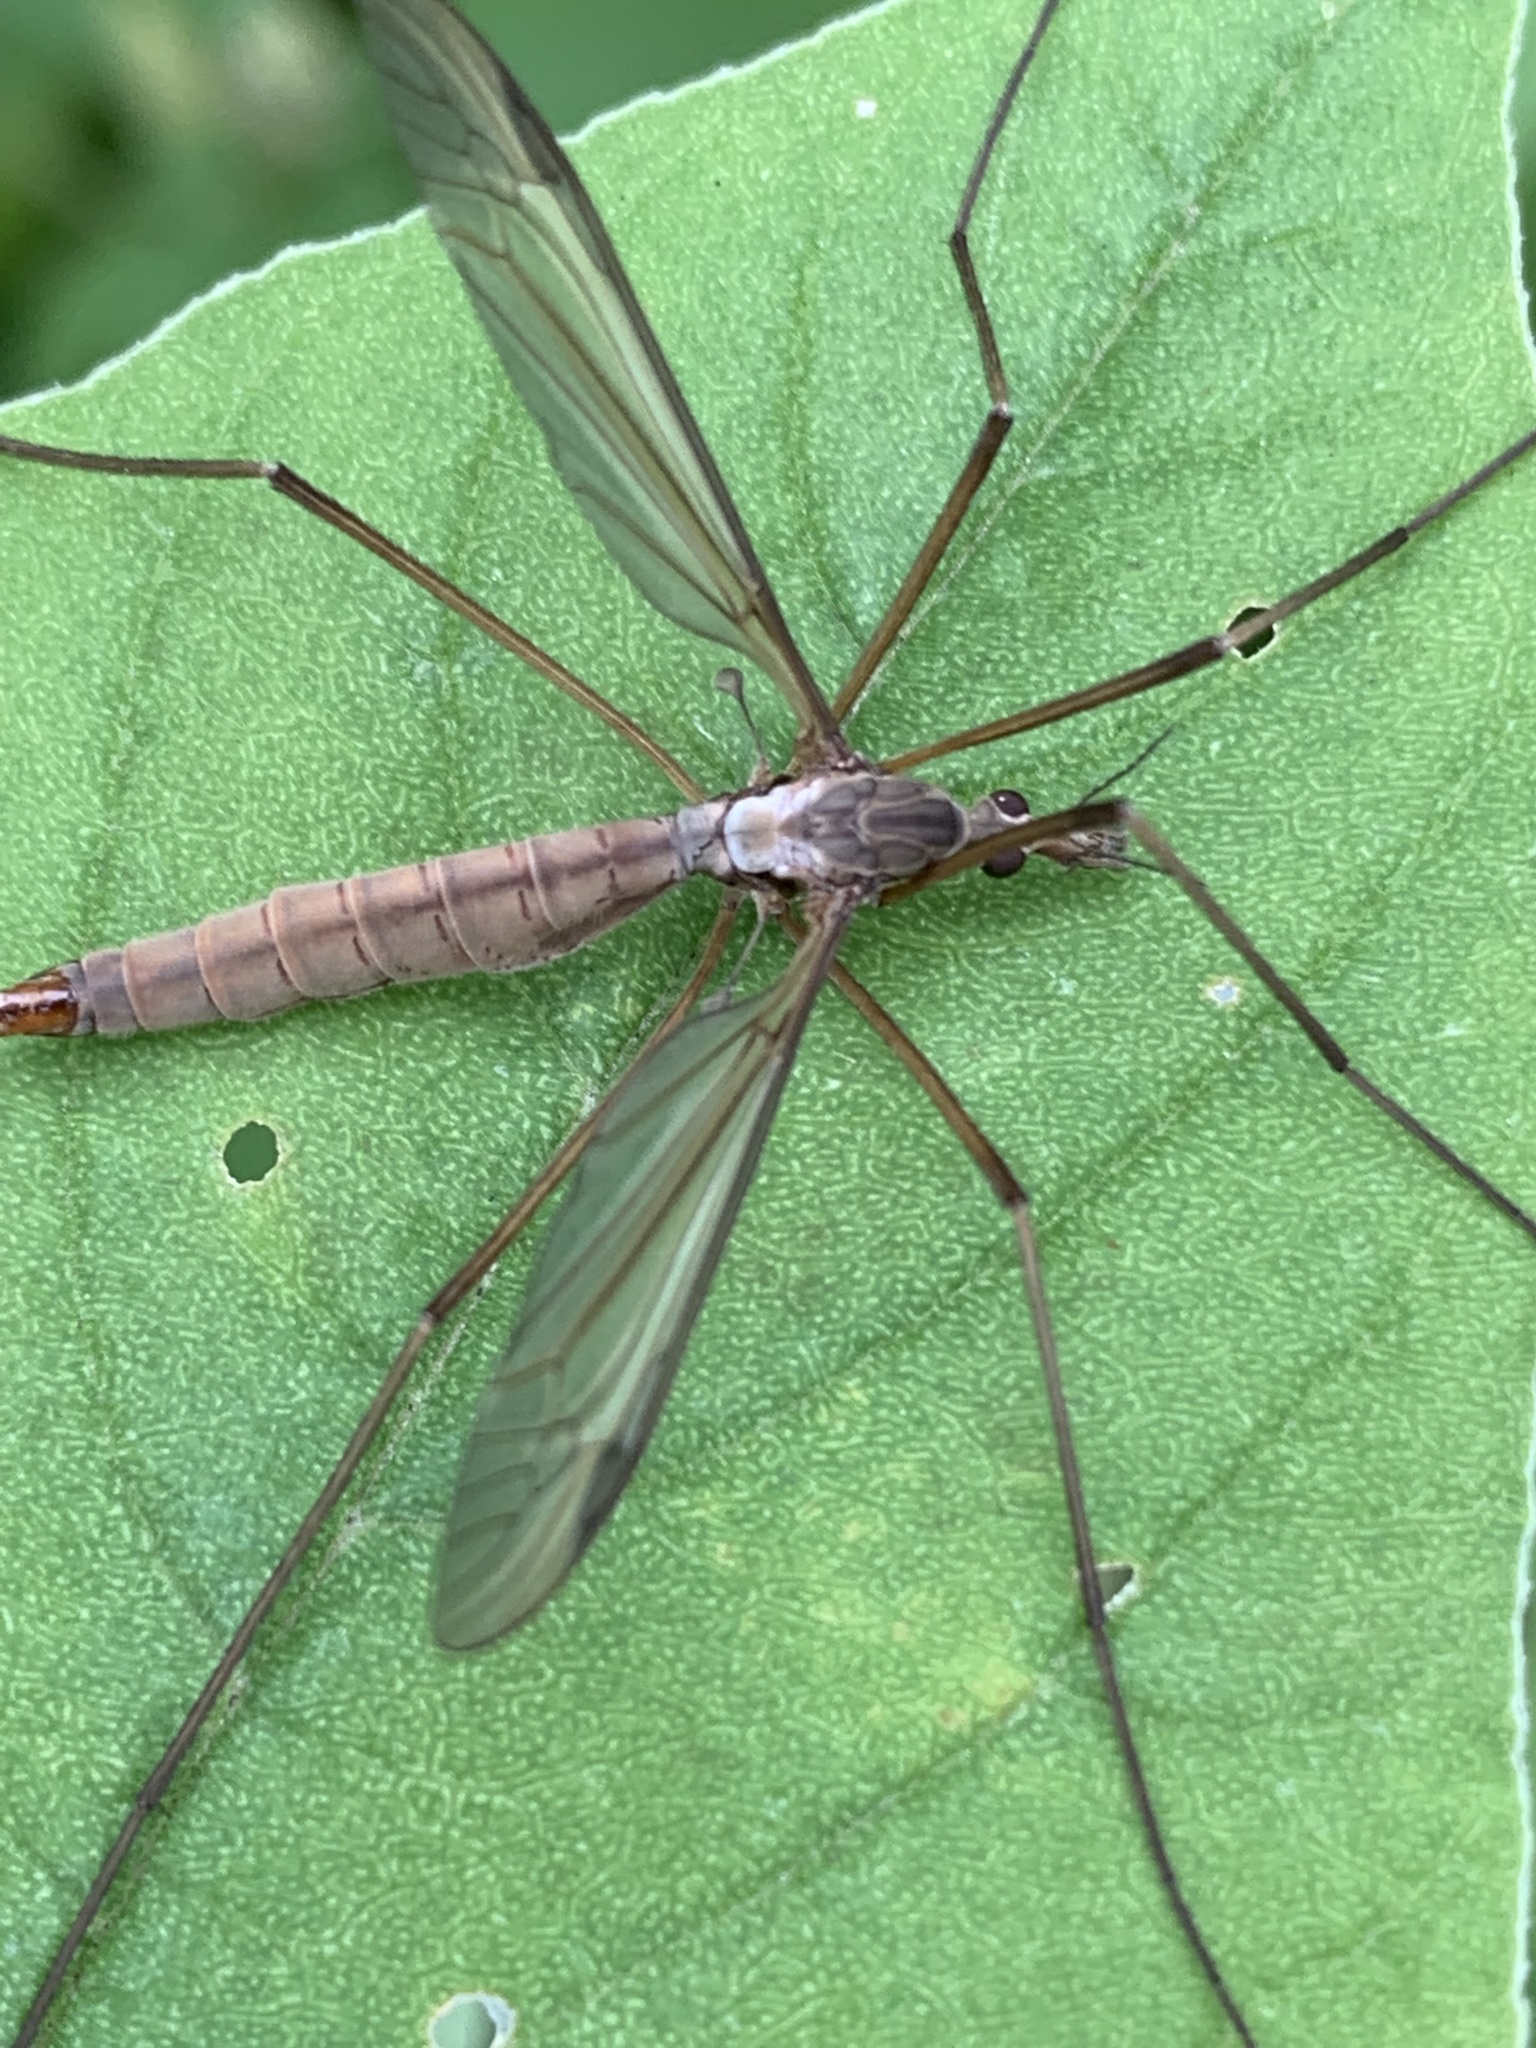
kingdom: Animalia
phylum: Arthropoda
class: Insecta
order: Diptera
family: Tipulidae
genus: Tipula
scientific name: Tipula paludosa
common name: European cranefly
